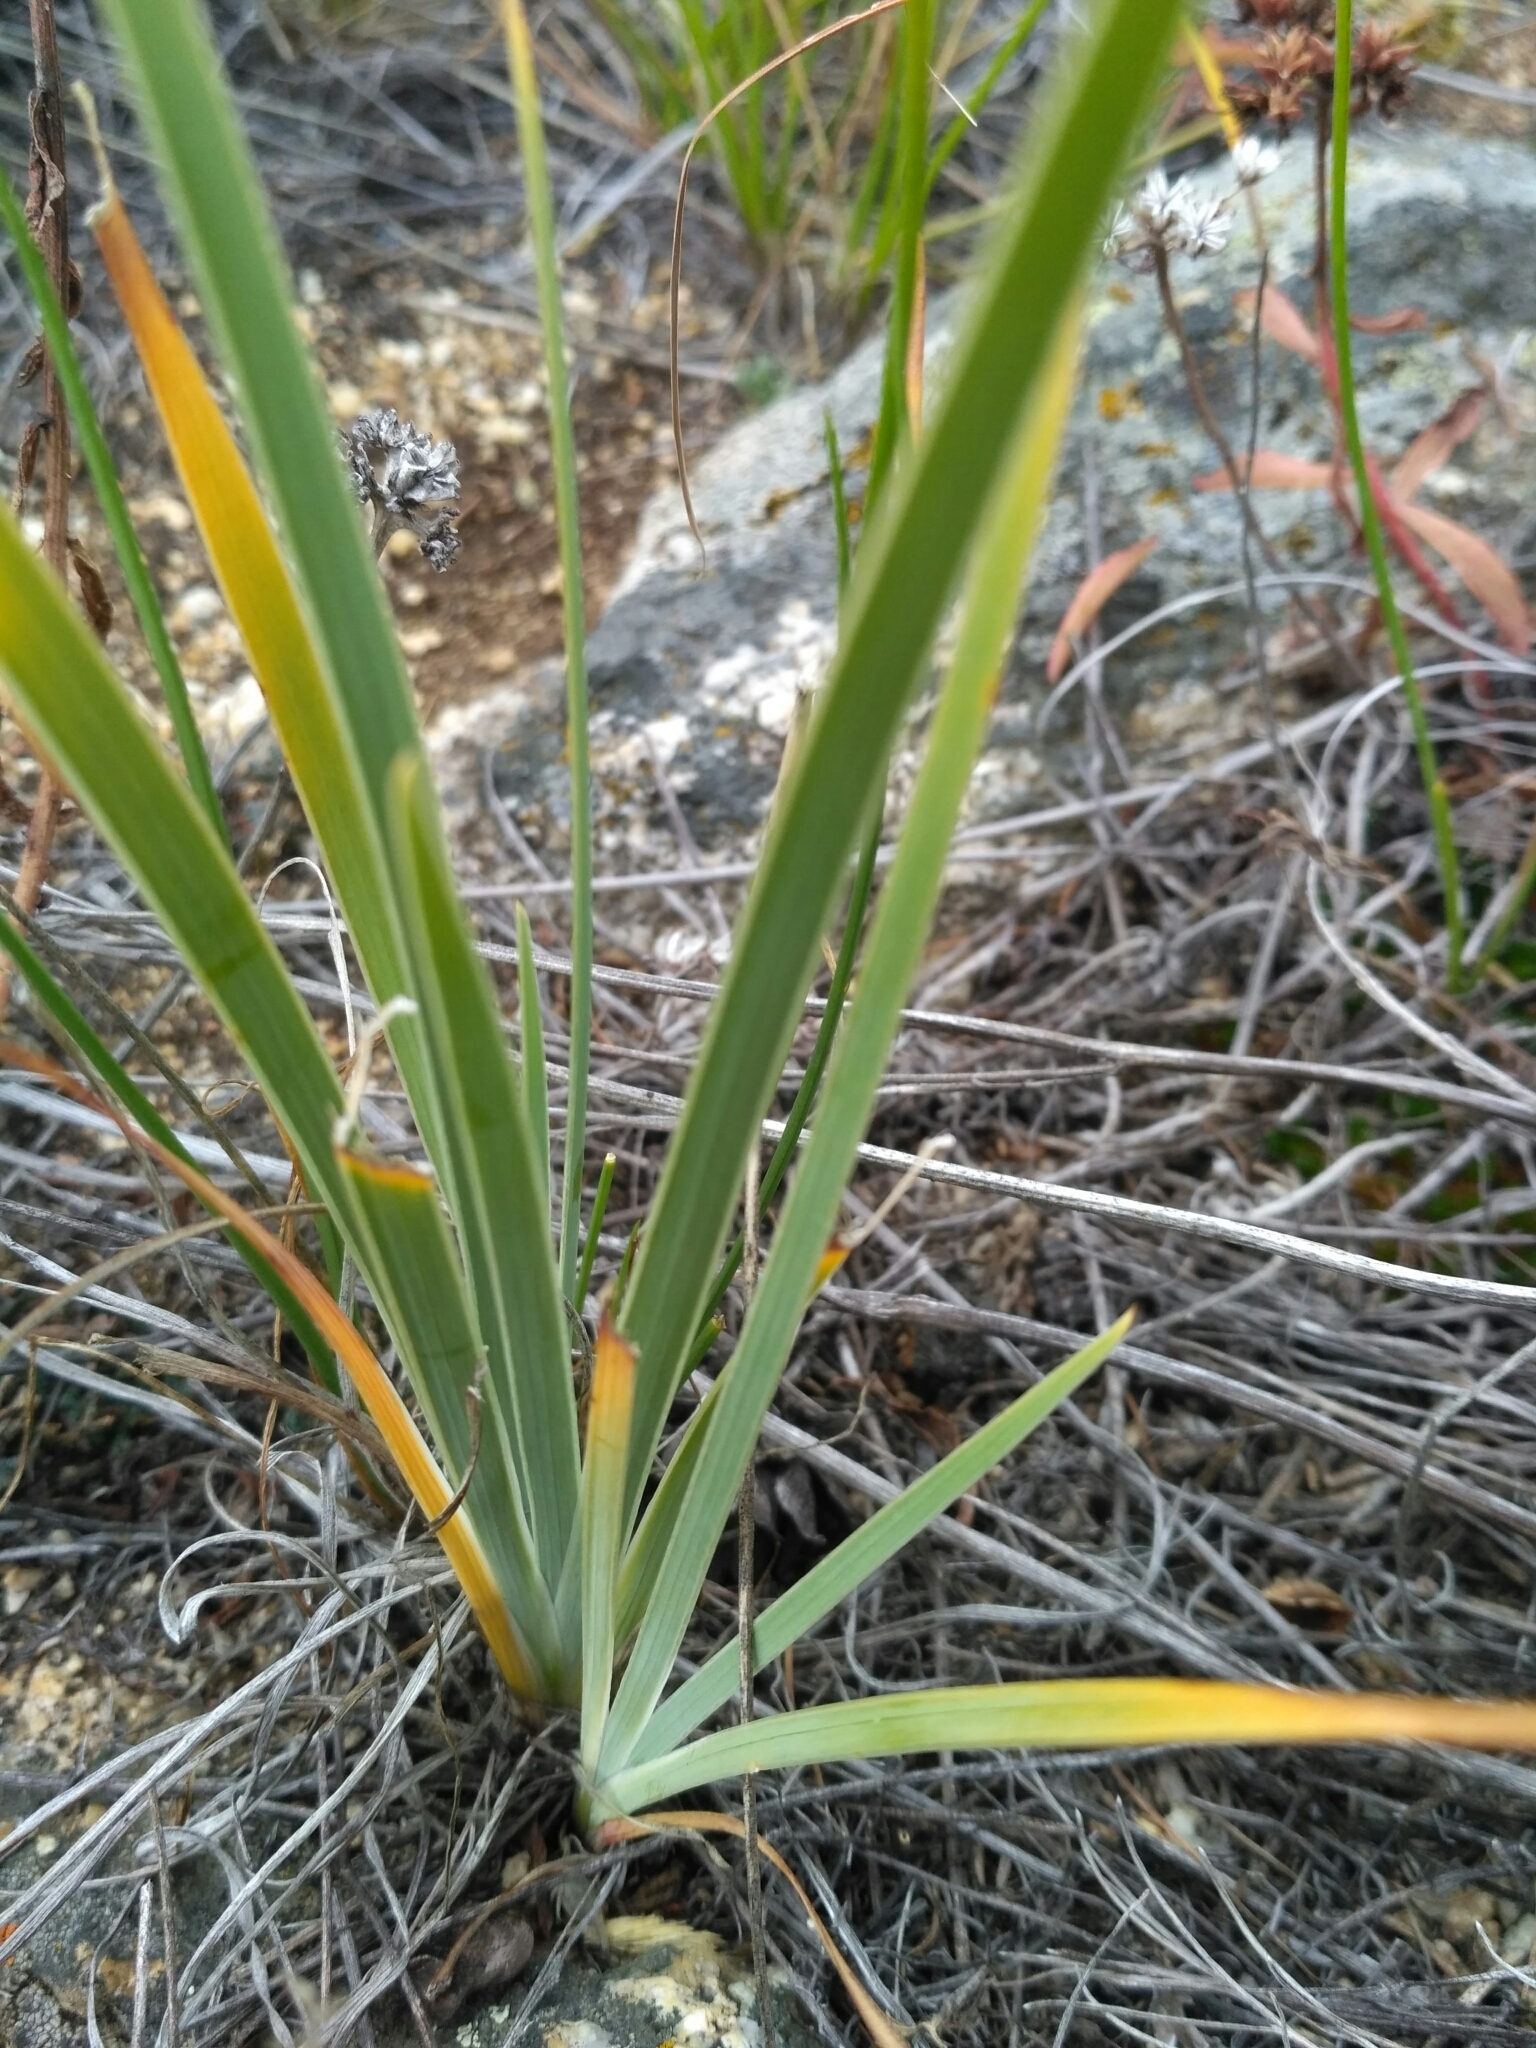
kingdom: Plantae
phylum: Tracheophyta
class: Liliopsida
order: Asparagales
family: Iridaceae
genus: Iris
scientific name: Iris lactea
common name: White-flower chinese iris
